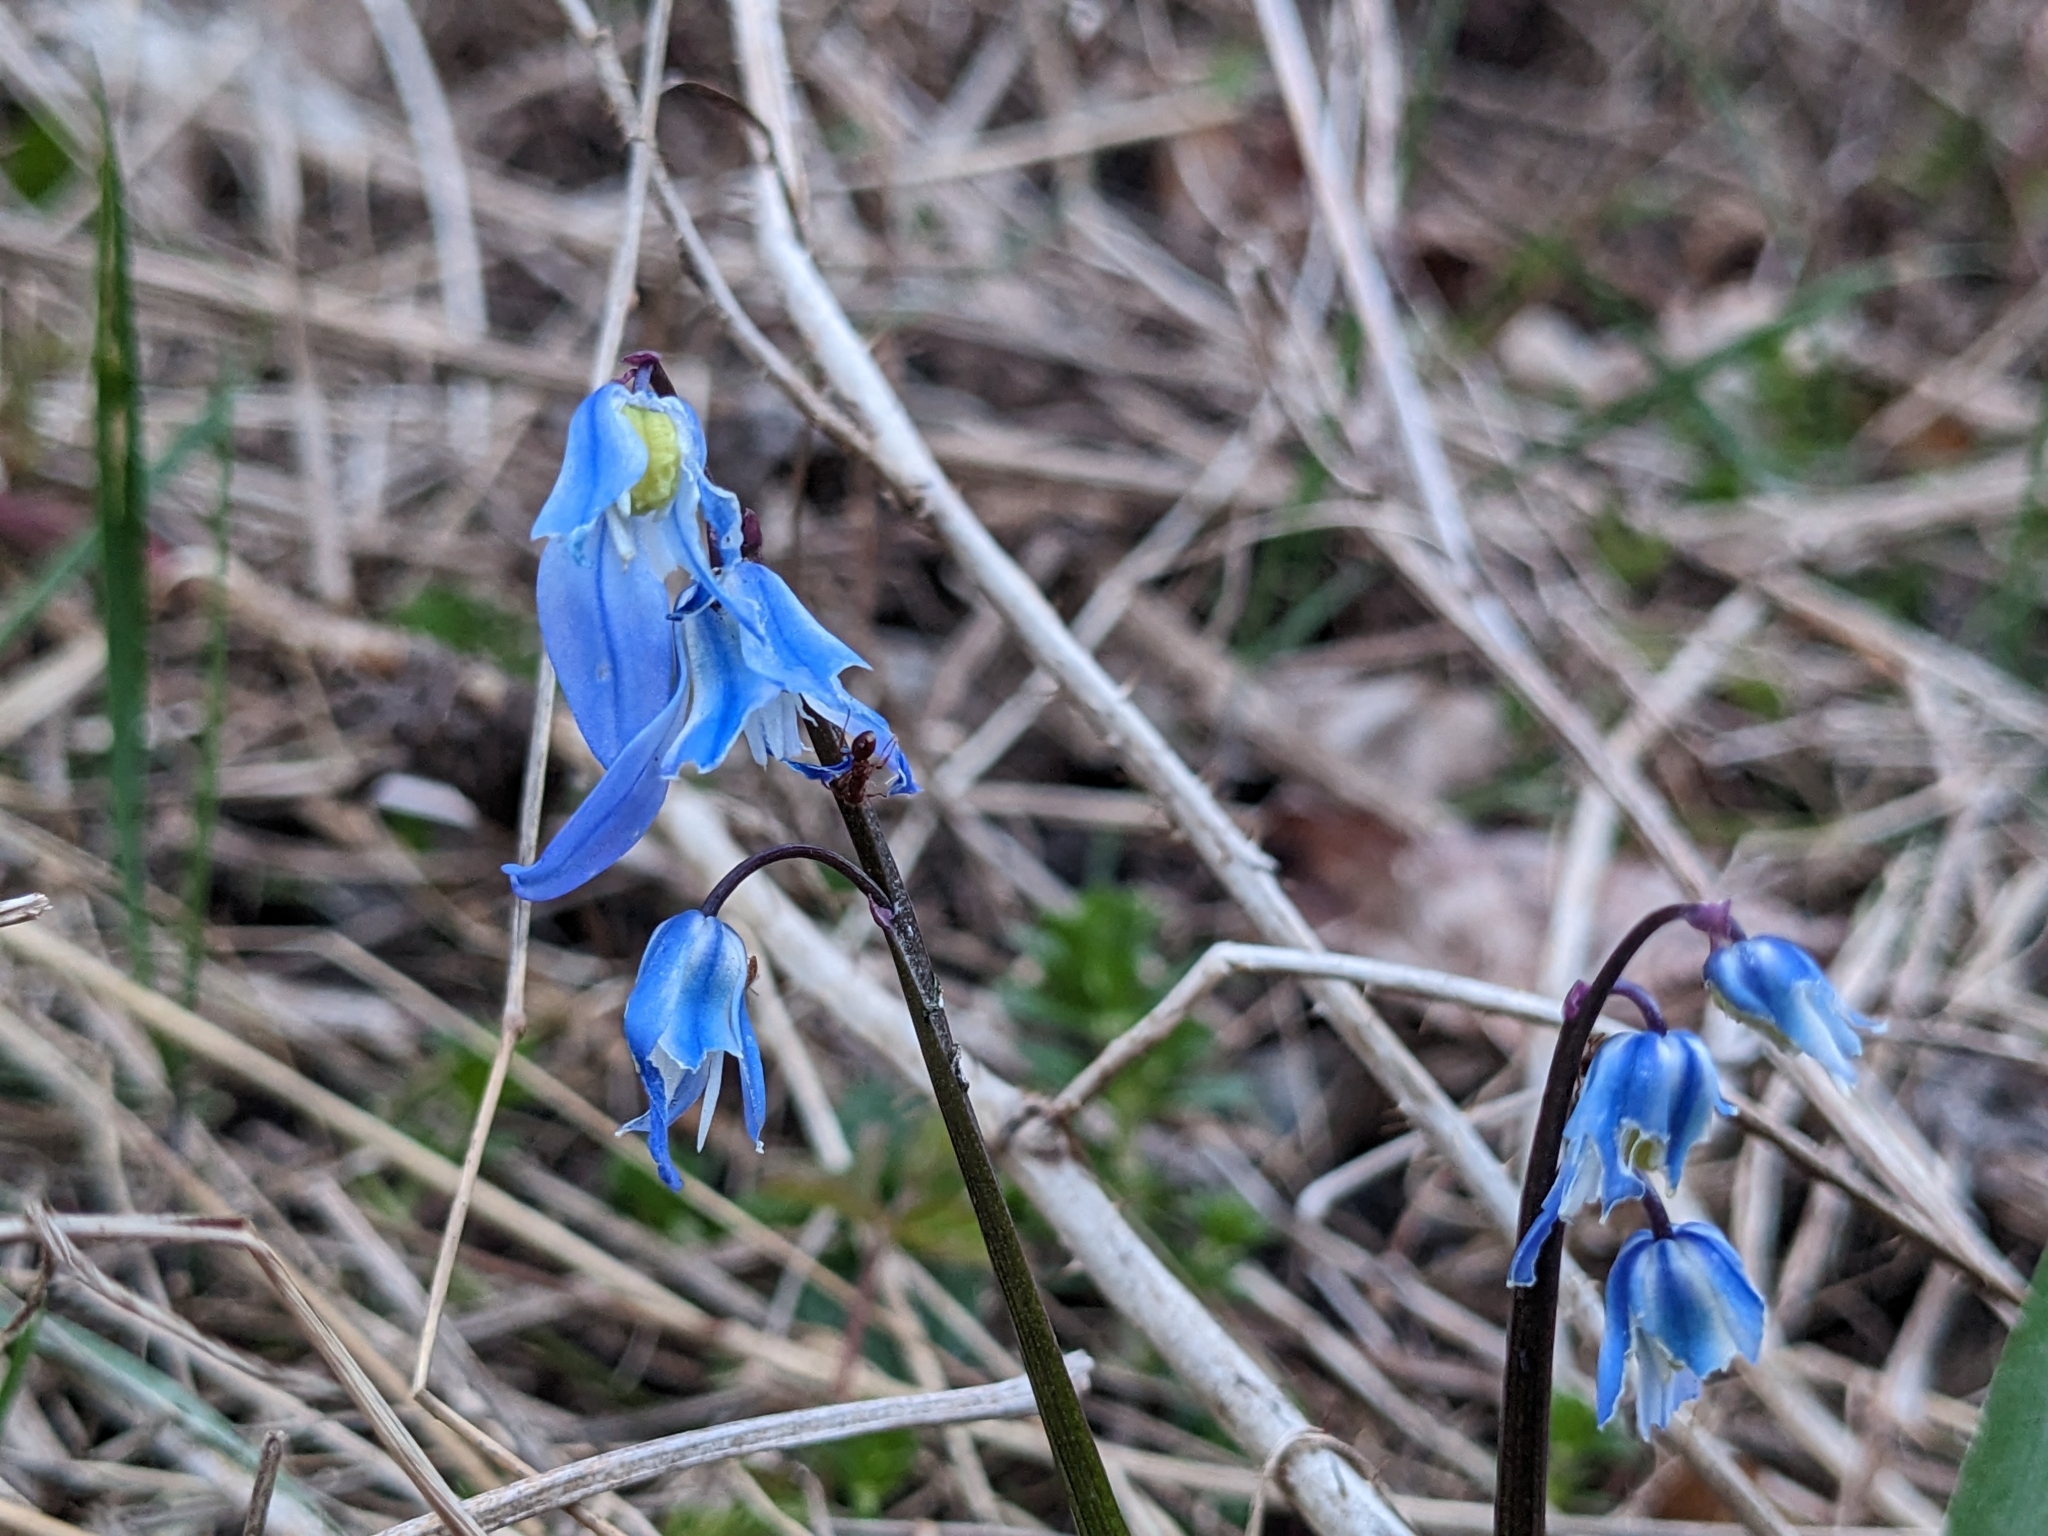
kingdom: Plantae
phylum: Tracheophyta
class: Liliopsida
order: Asparagales
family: Asparagaceae
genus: Scilla
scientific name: Scilla siberica
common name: Siberian squill
